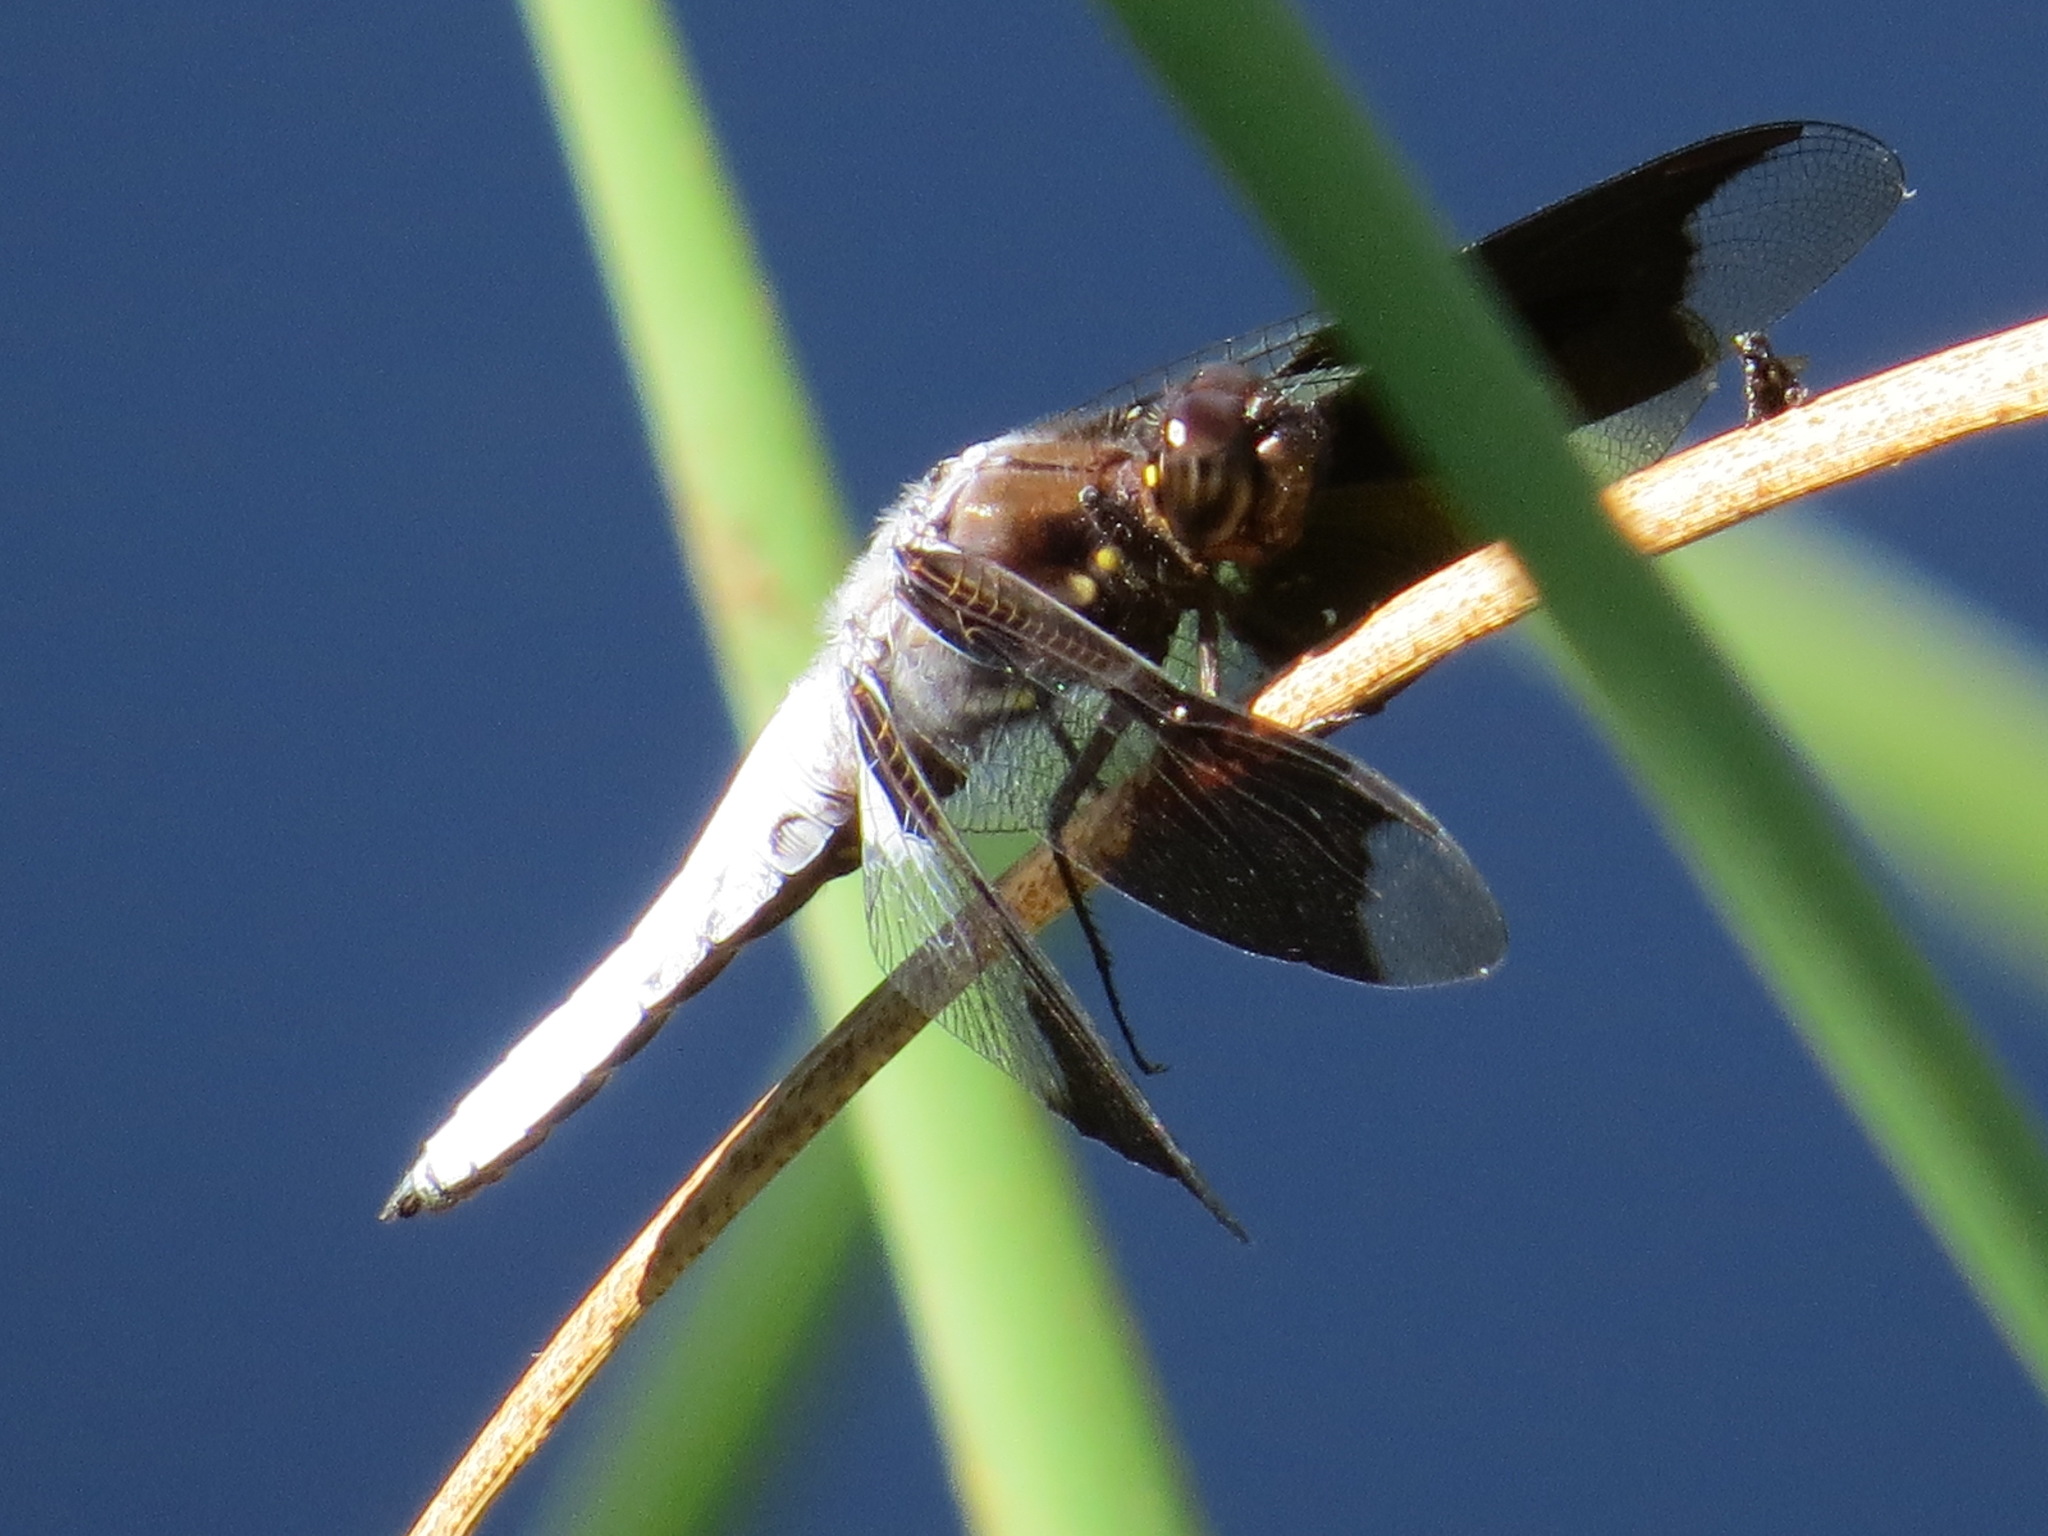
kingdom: Animalia
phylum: Arthropoda
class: Insecta
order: Odonata
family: Libellulidae
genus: Plathemis
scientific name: Plathemis lydia
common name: Common whitetail
